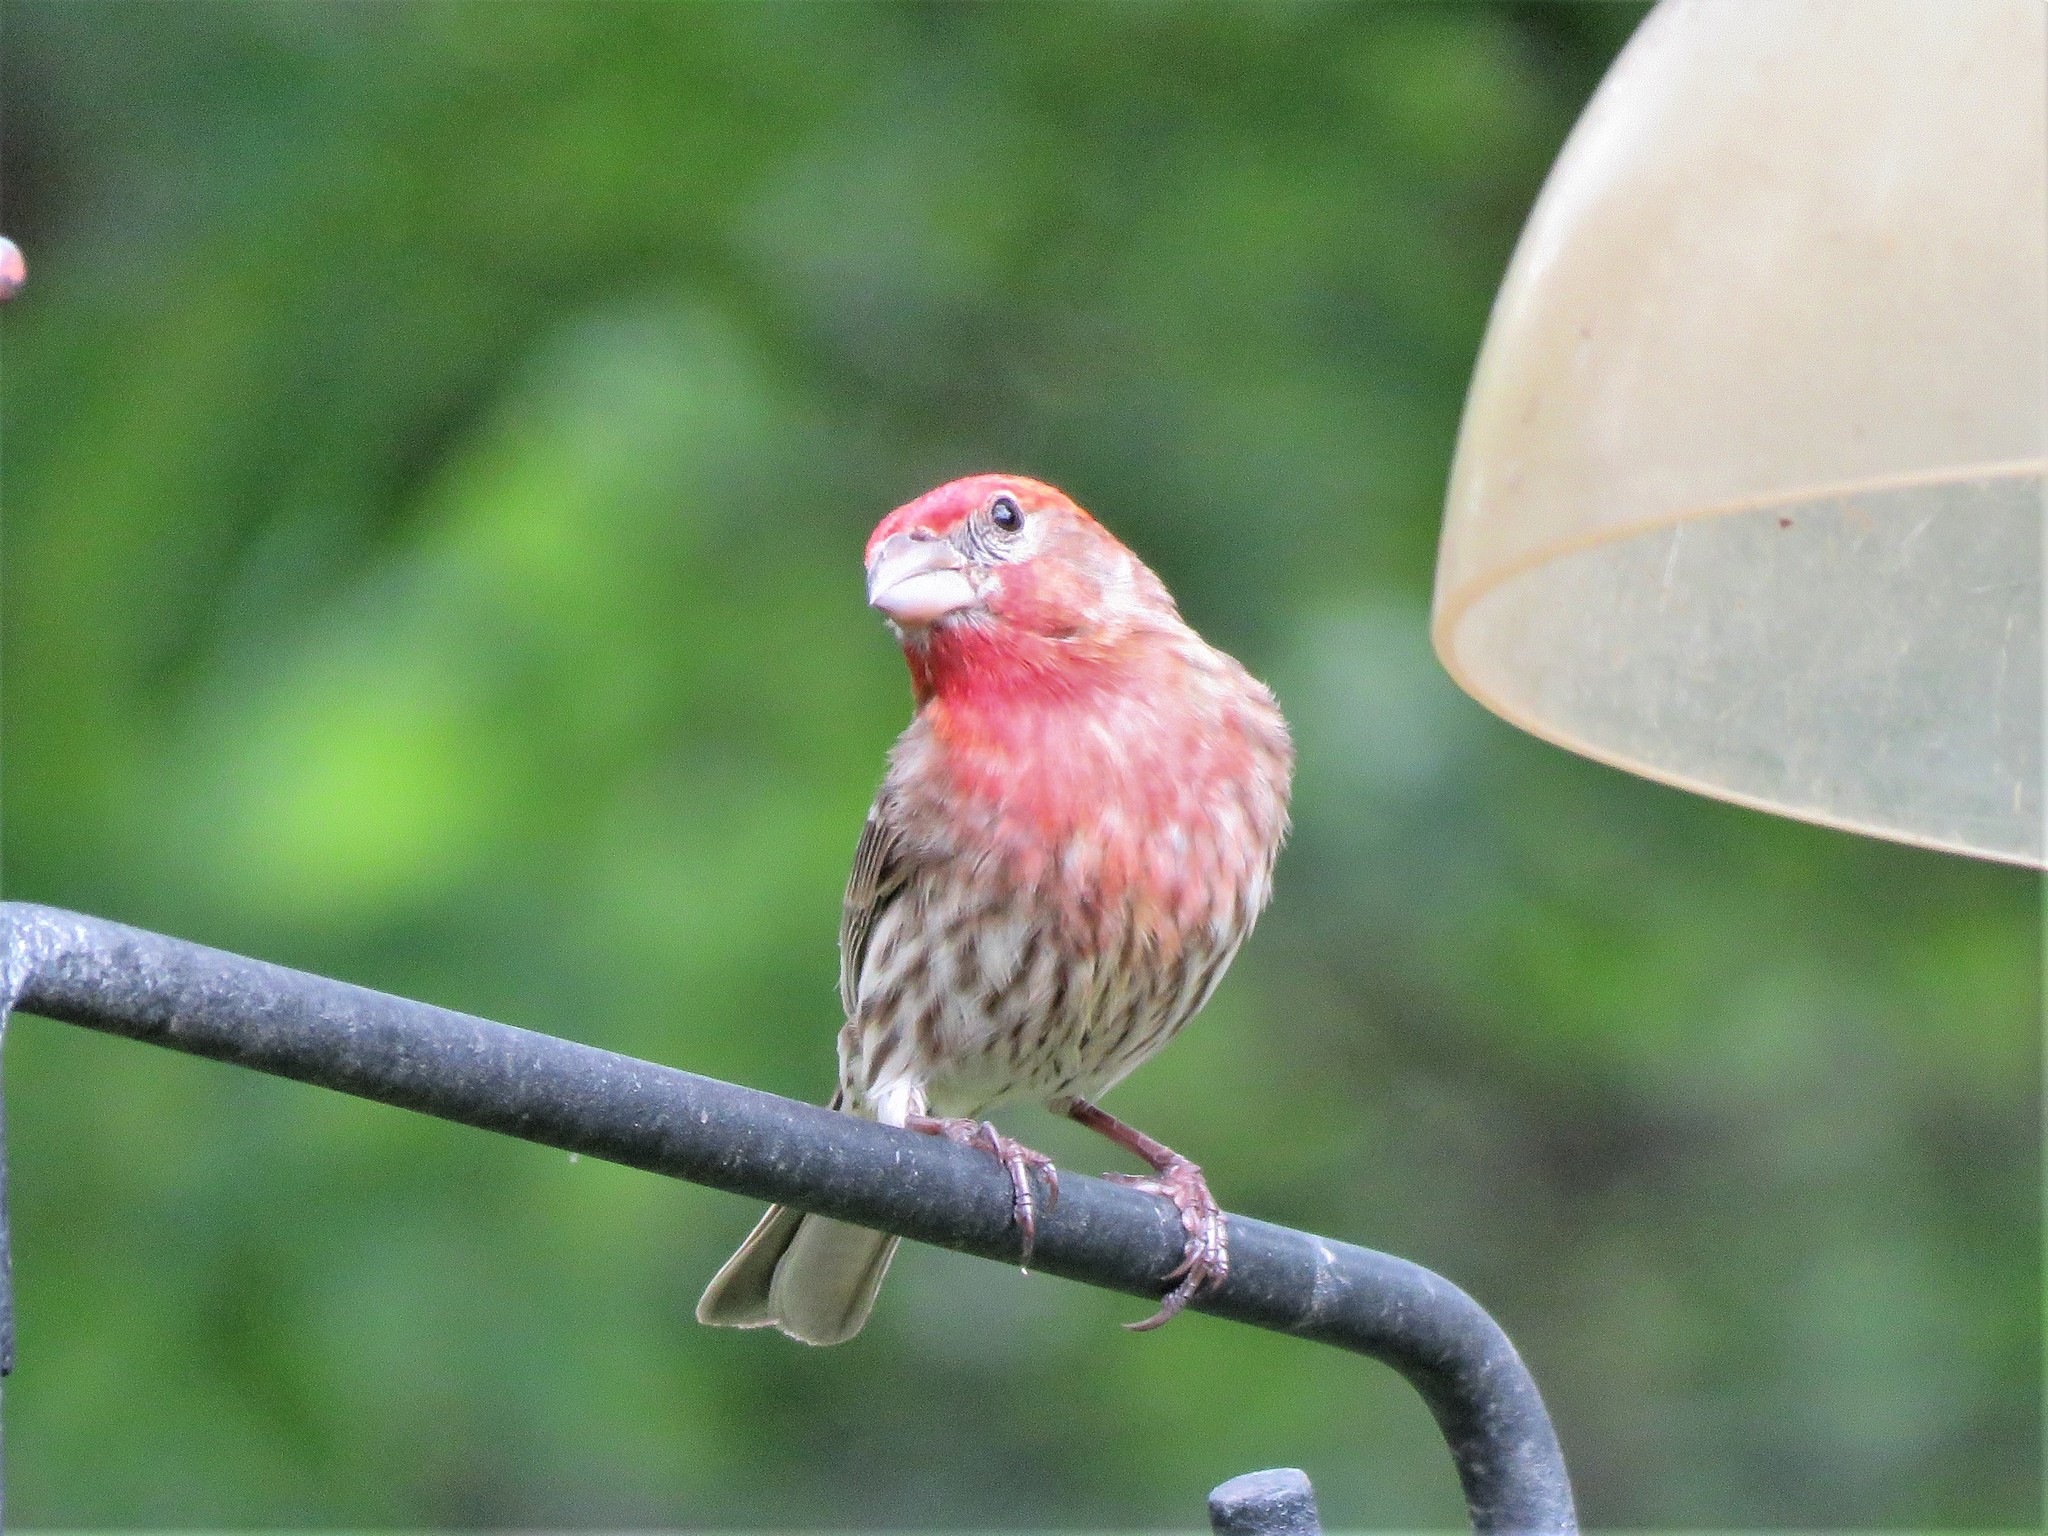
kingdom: Animalia
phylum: Chordata
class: Aves
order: Passeriformes
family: Fringillidae
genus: Haemorhous
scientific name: Haemorhous mexicanus
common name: House finch
